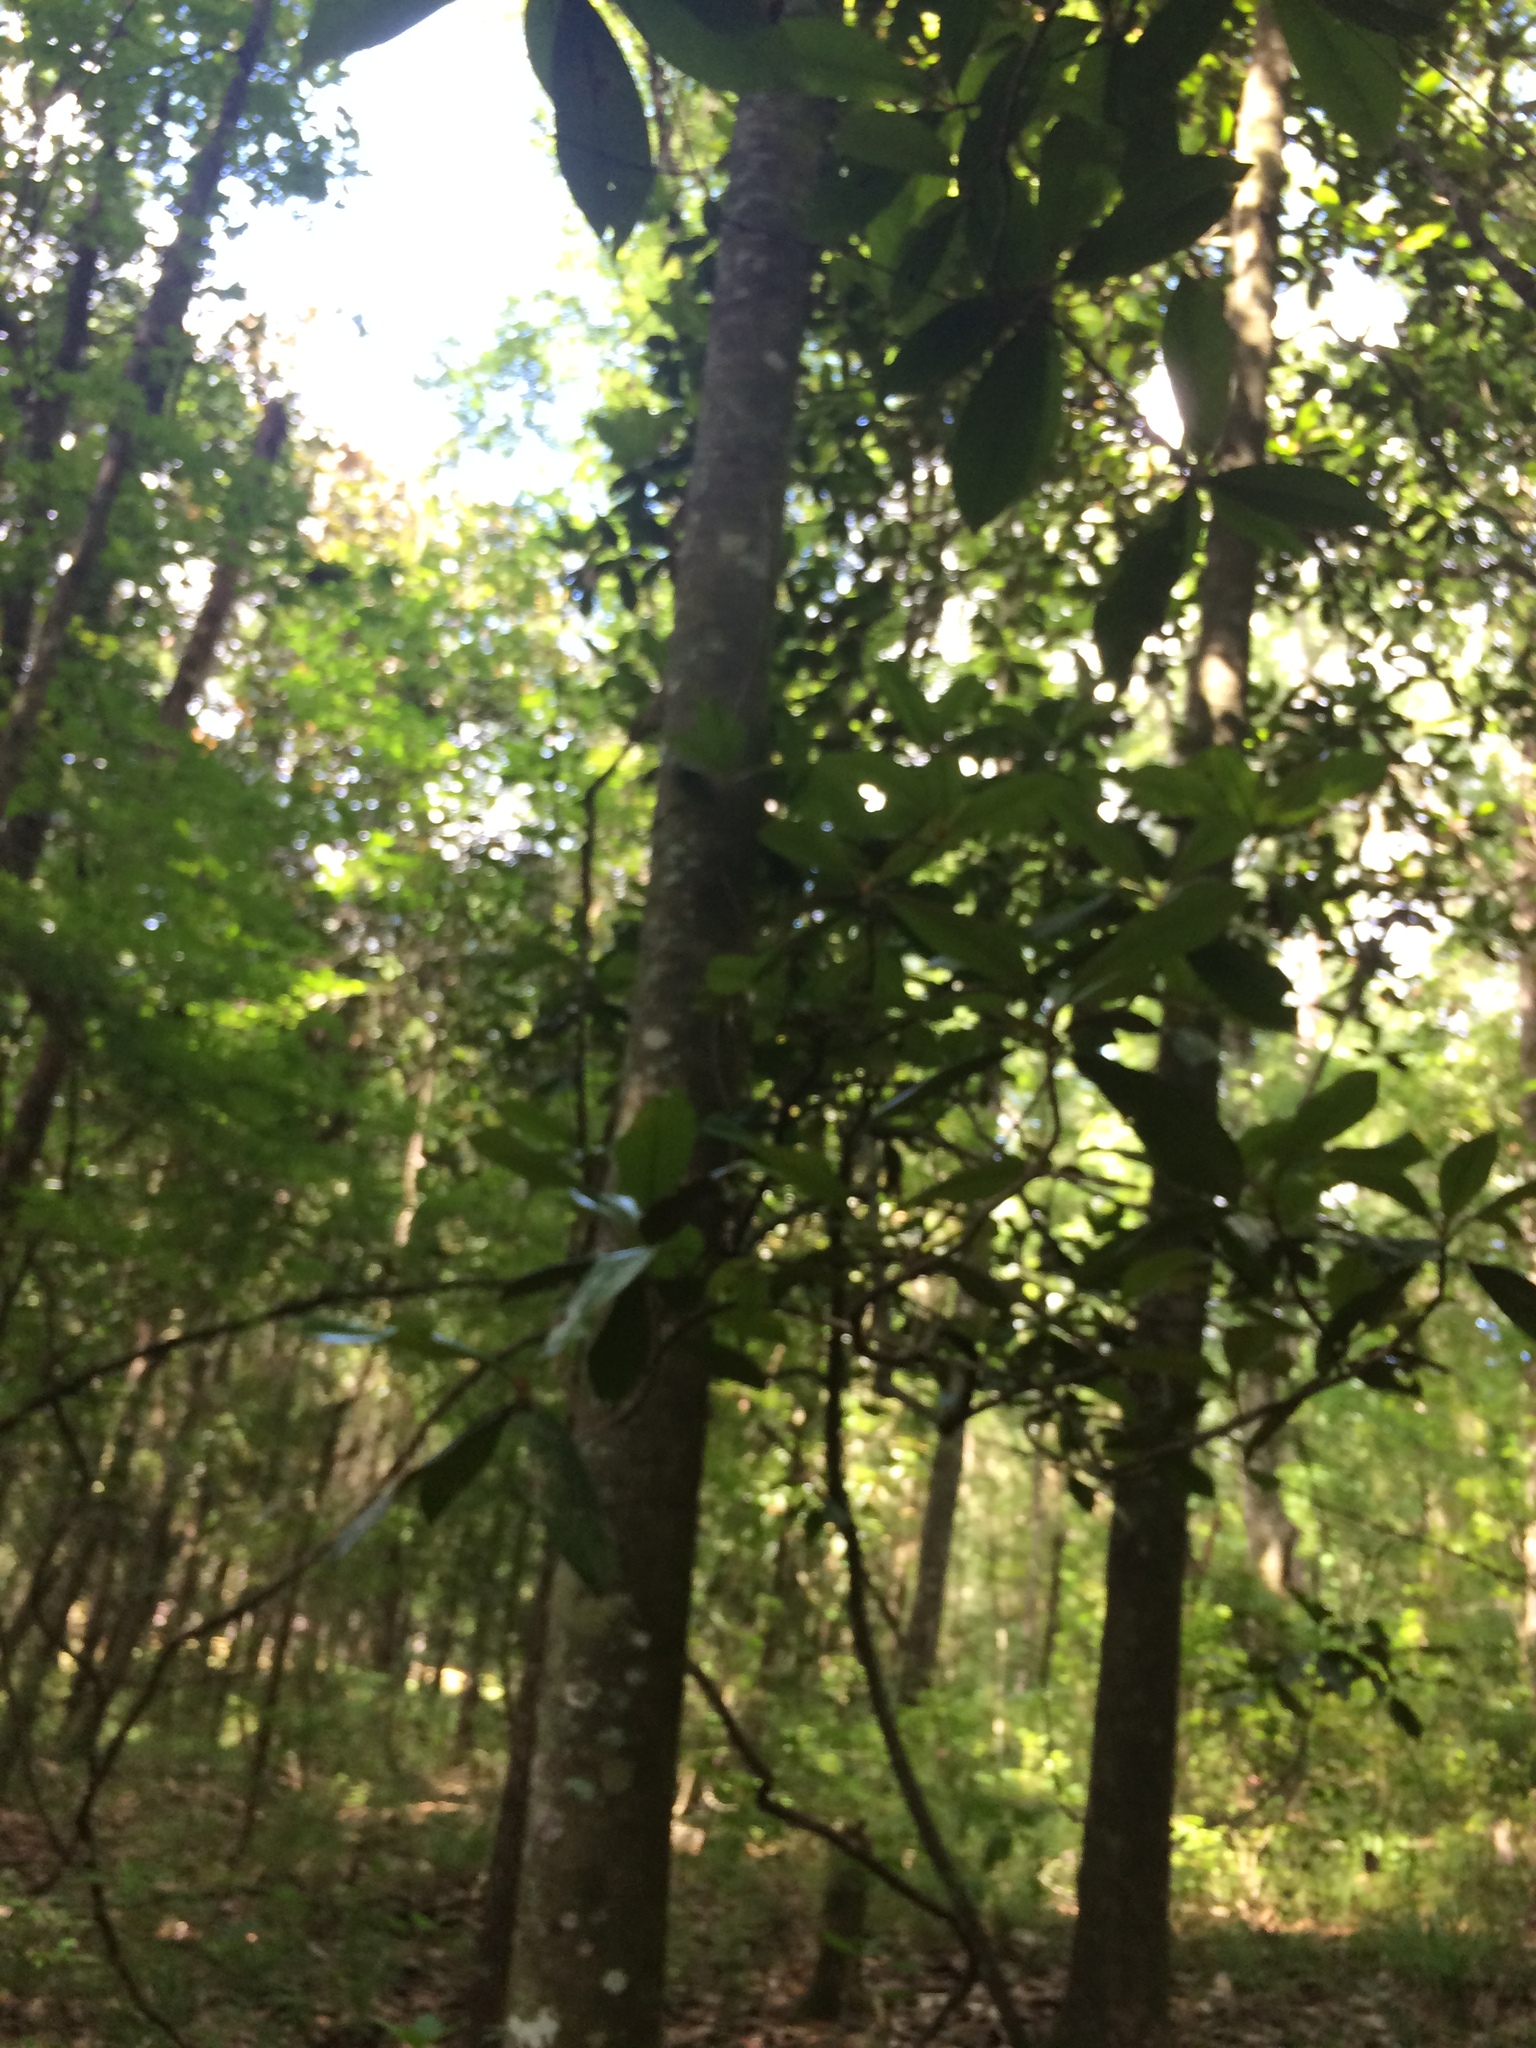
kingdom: Plantae
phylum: Tracheophyta
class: Magnoliopsida
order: Magnoliales
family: Magnoliaceae
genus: Magnolia
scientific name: Magnolia grandiflora
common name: Southern magnolia
